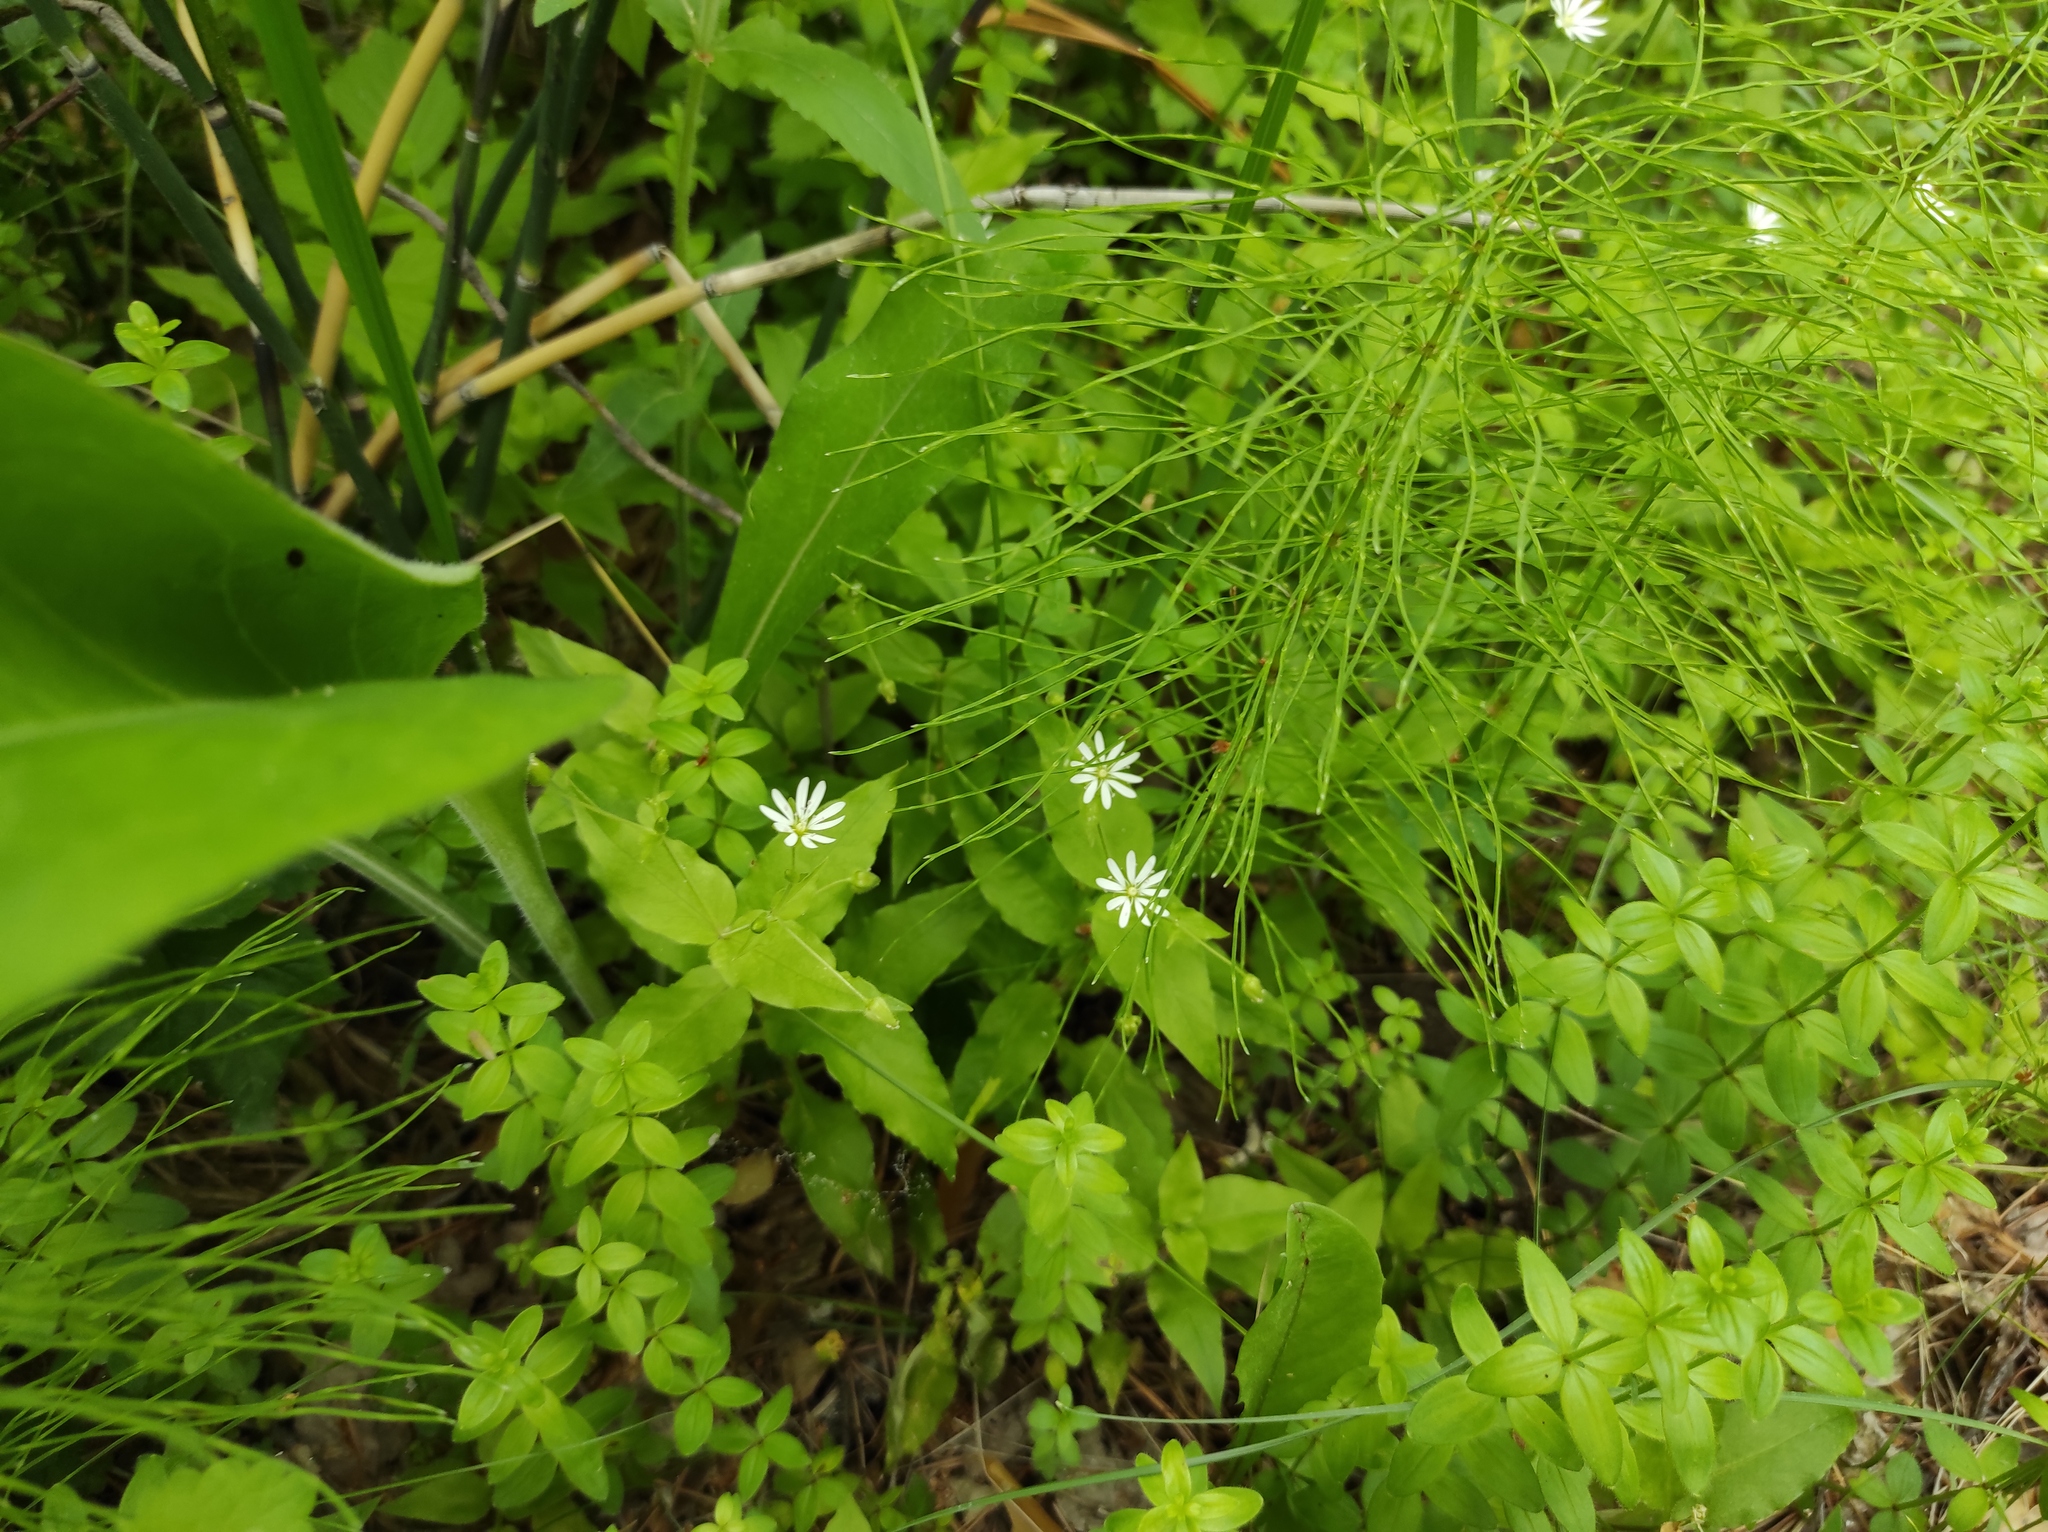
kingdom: Plantae
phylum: Tracheophyta
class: Magnoliopsida
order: Caryophyllales
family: Caryophyllaceae
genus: Stellaria
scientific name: Stellaria bungeana
